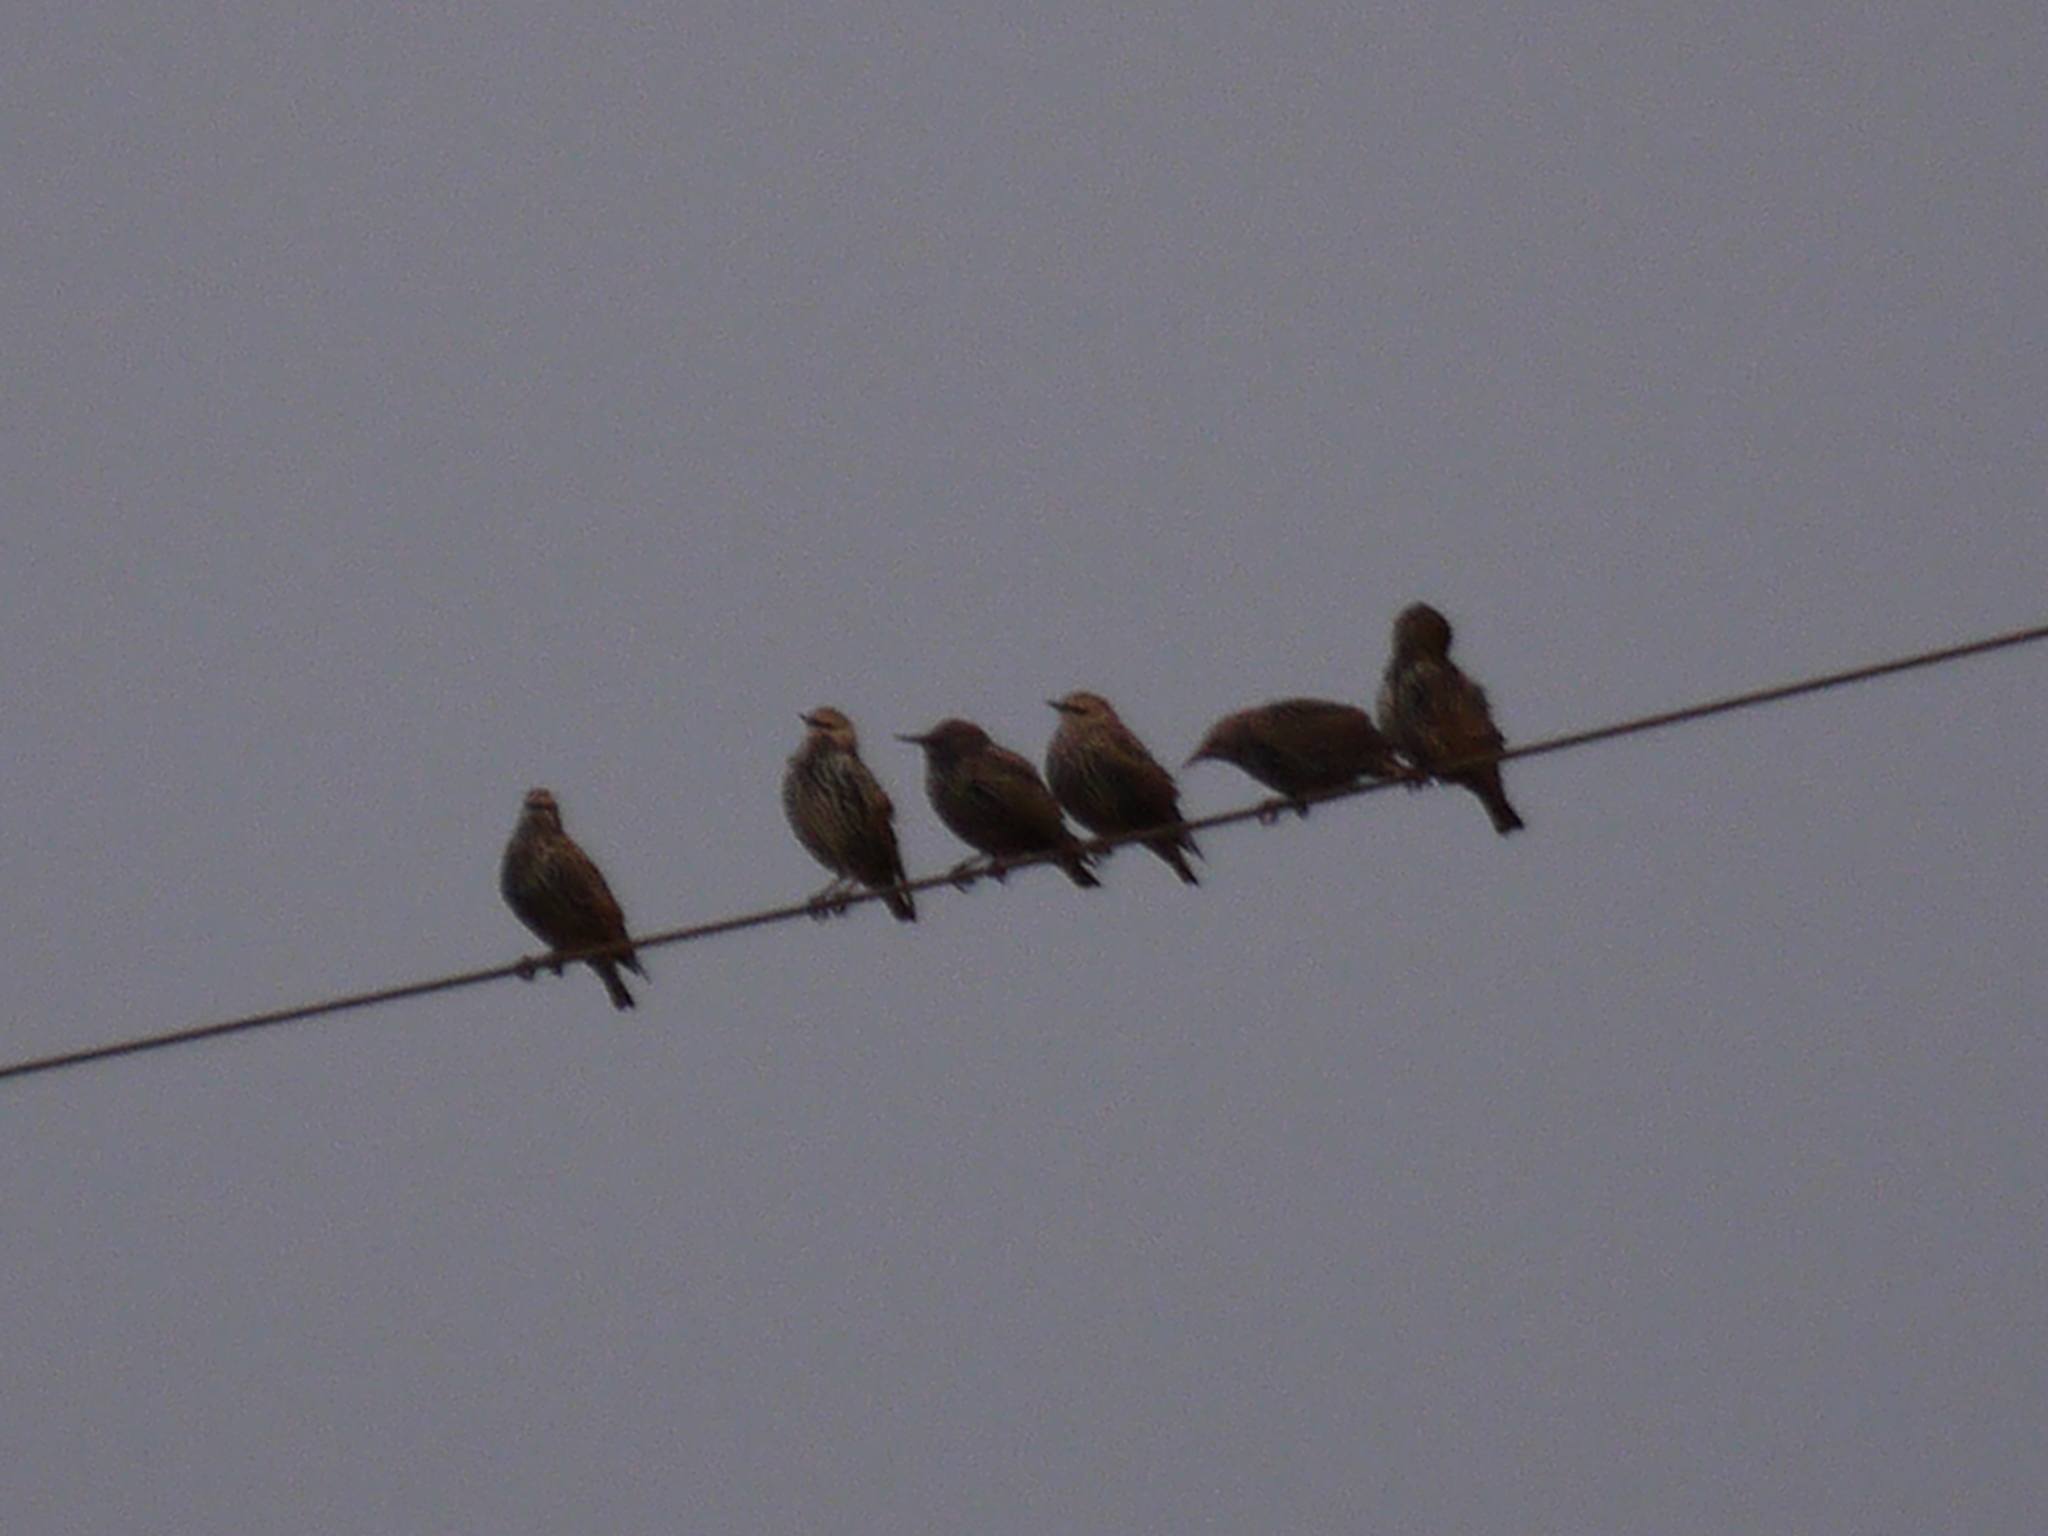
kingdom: Animalia
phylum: Chordata
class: Aves
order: Passeriformes
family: Sturnidae
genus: Sturnus
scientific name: Sturnus vulgaris
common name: Common starling
